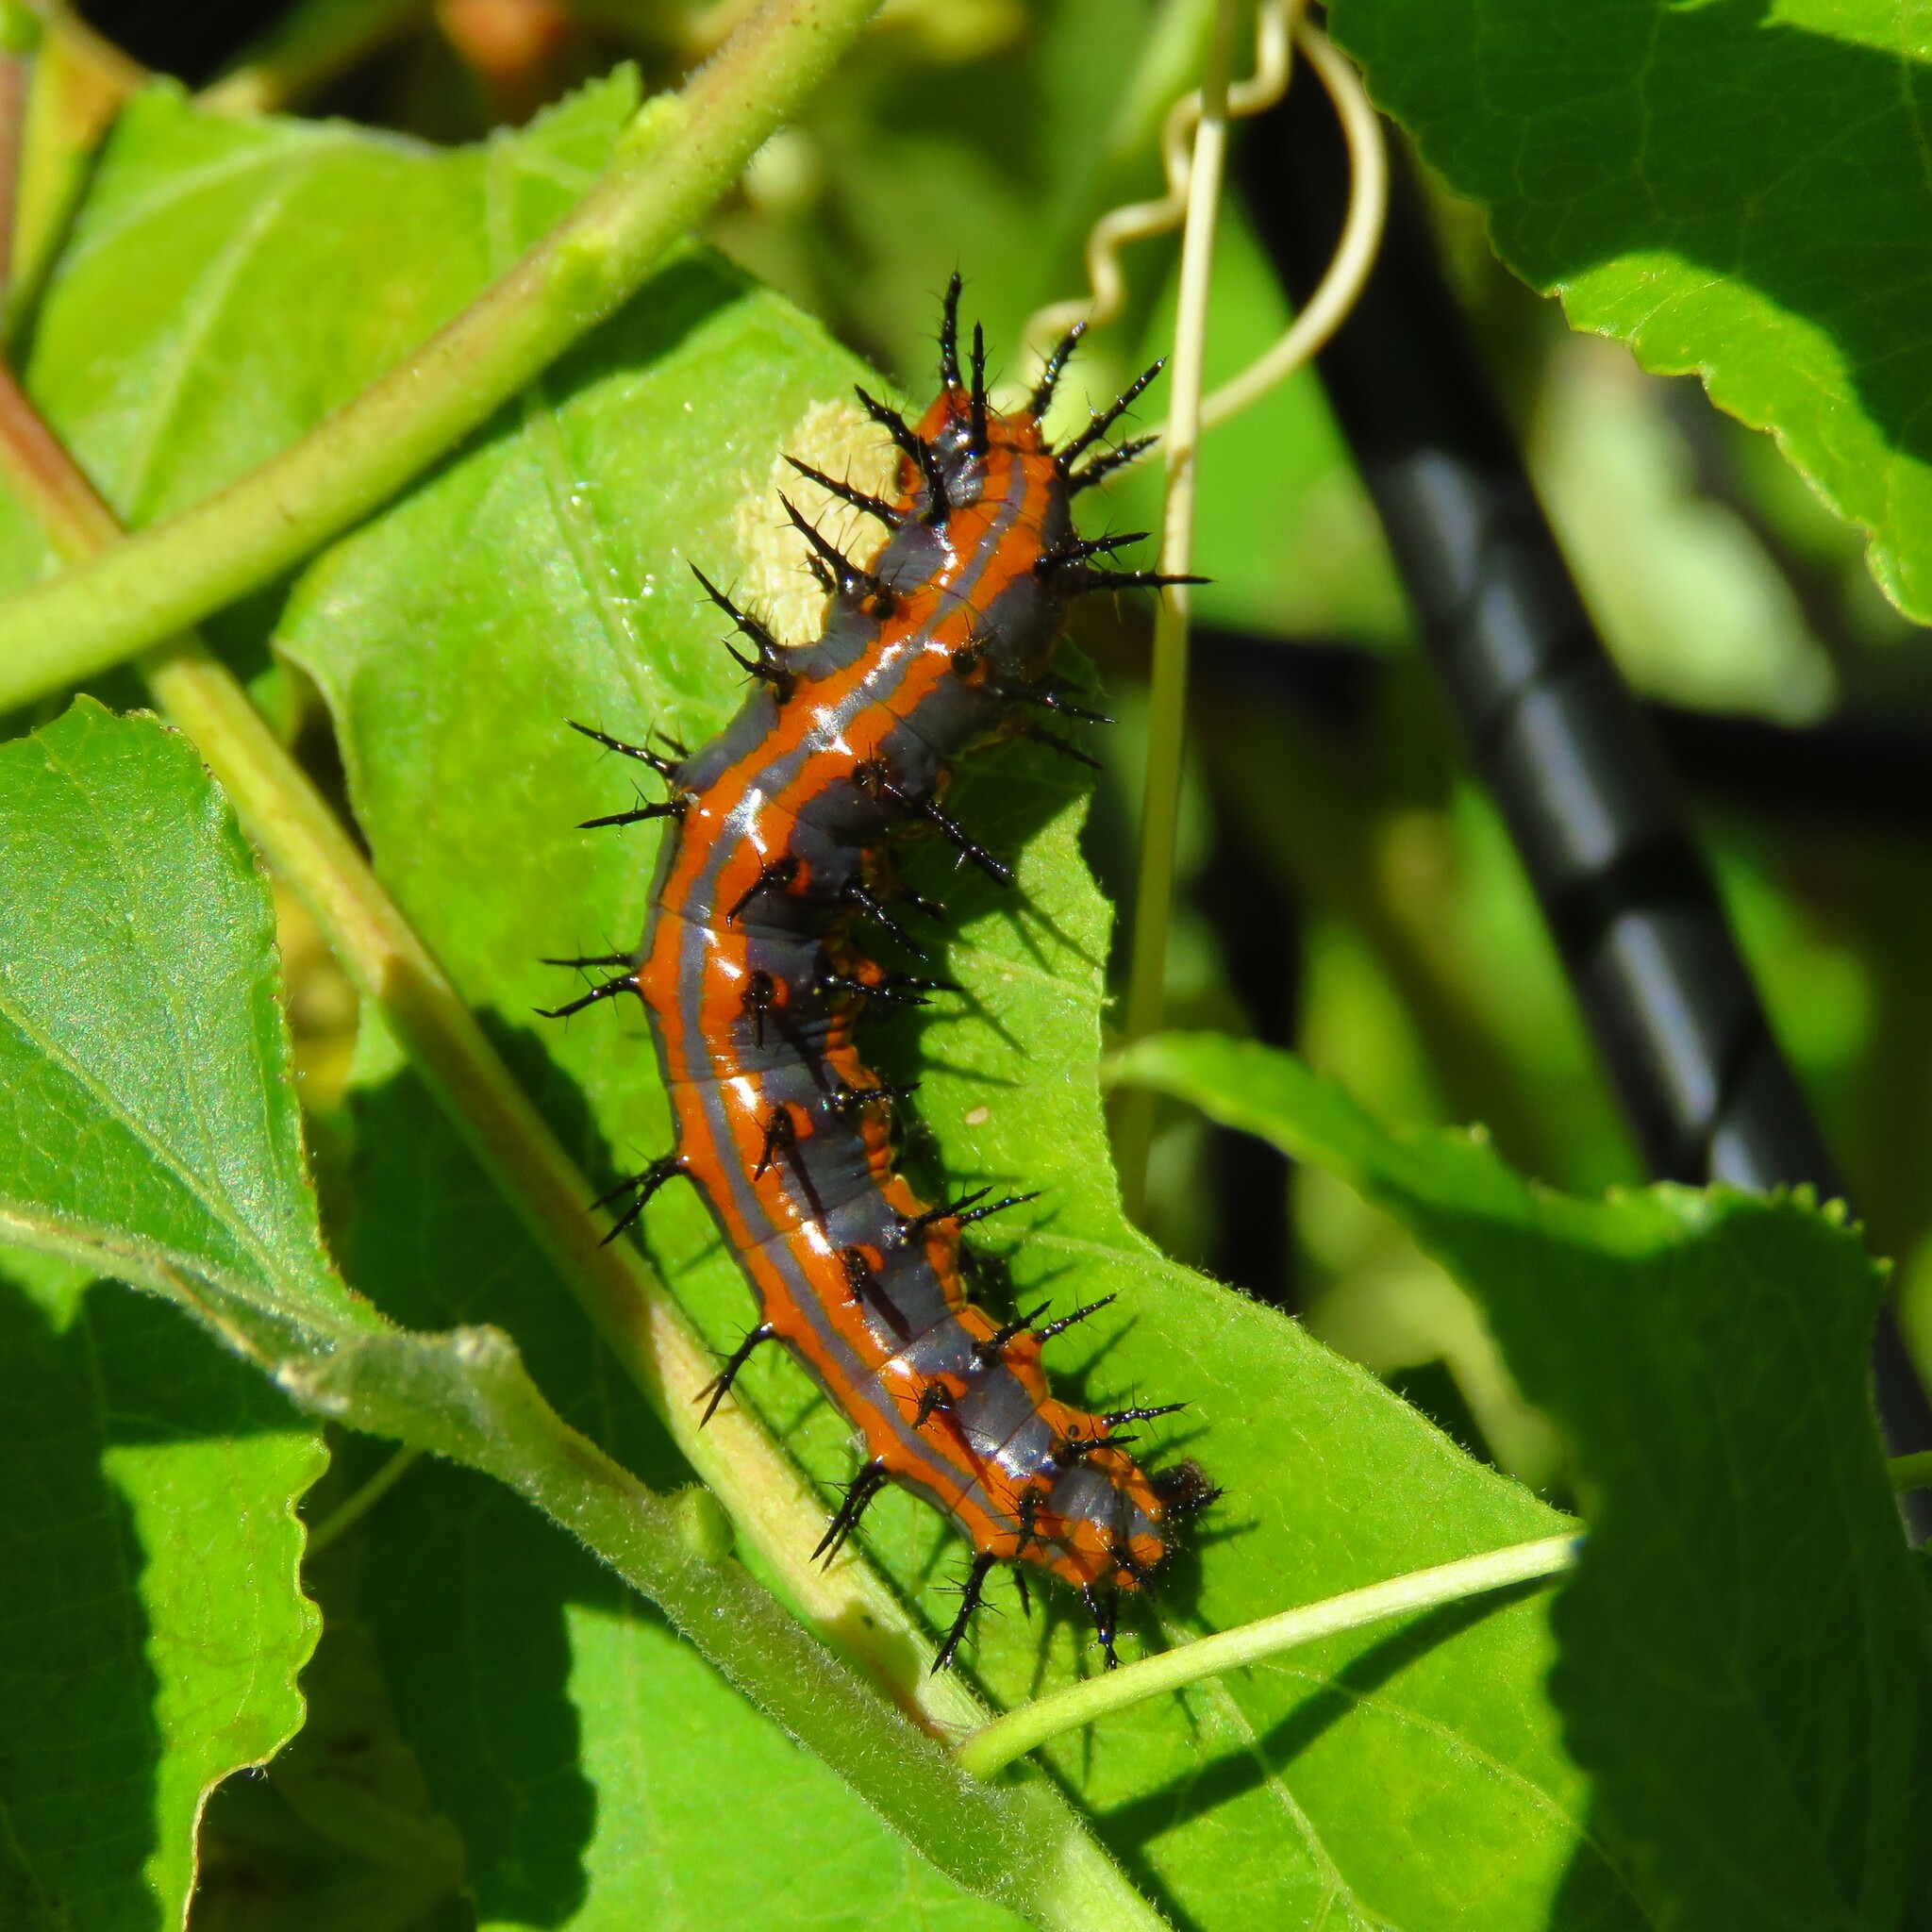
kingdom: Animalia
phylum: Arthropoda
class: Insecta
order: Lepidoptera
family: Nymphalidae
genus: Dione
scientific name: Dione vanillae
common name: Gulf fritillary
